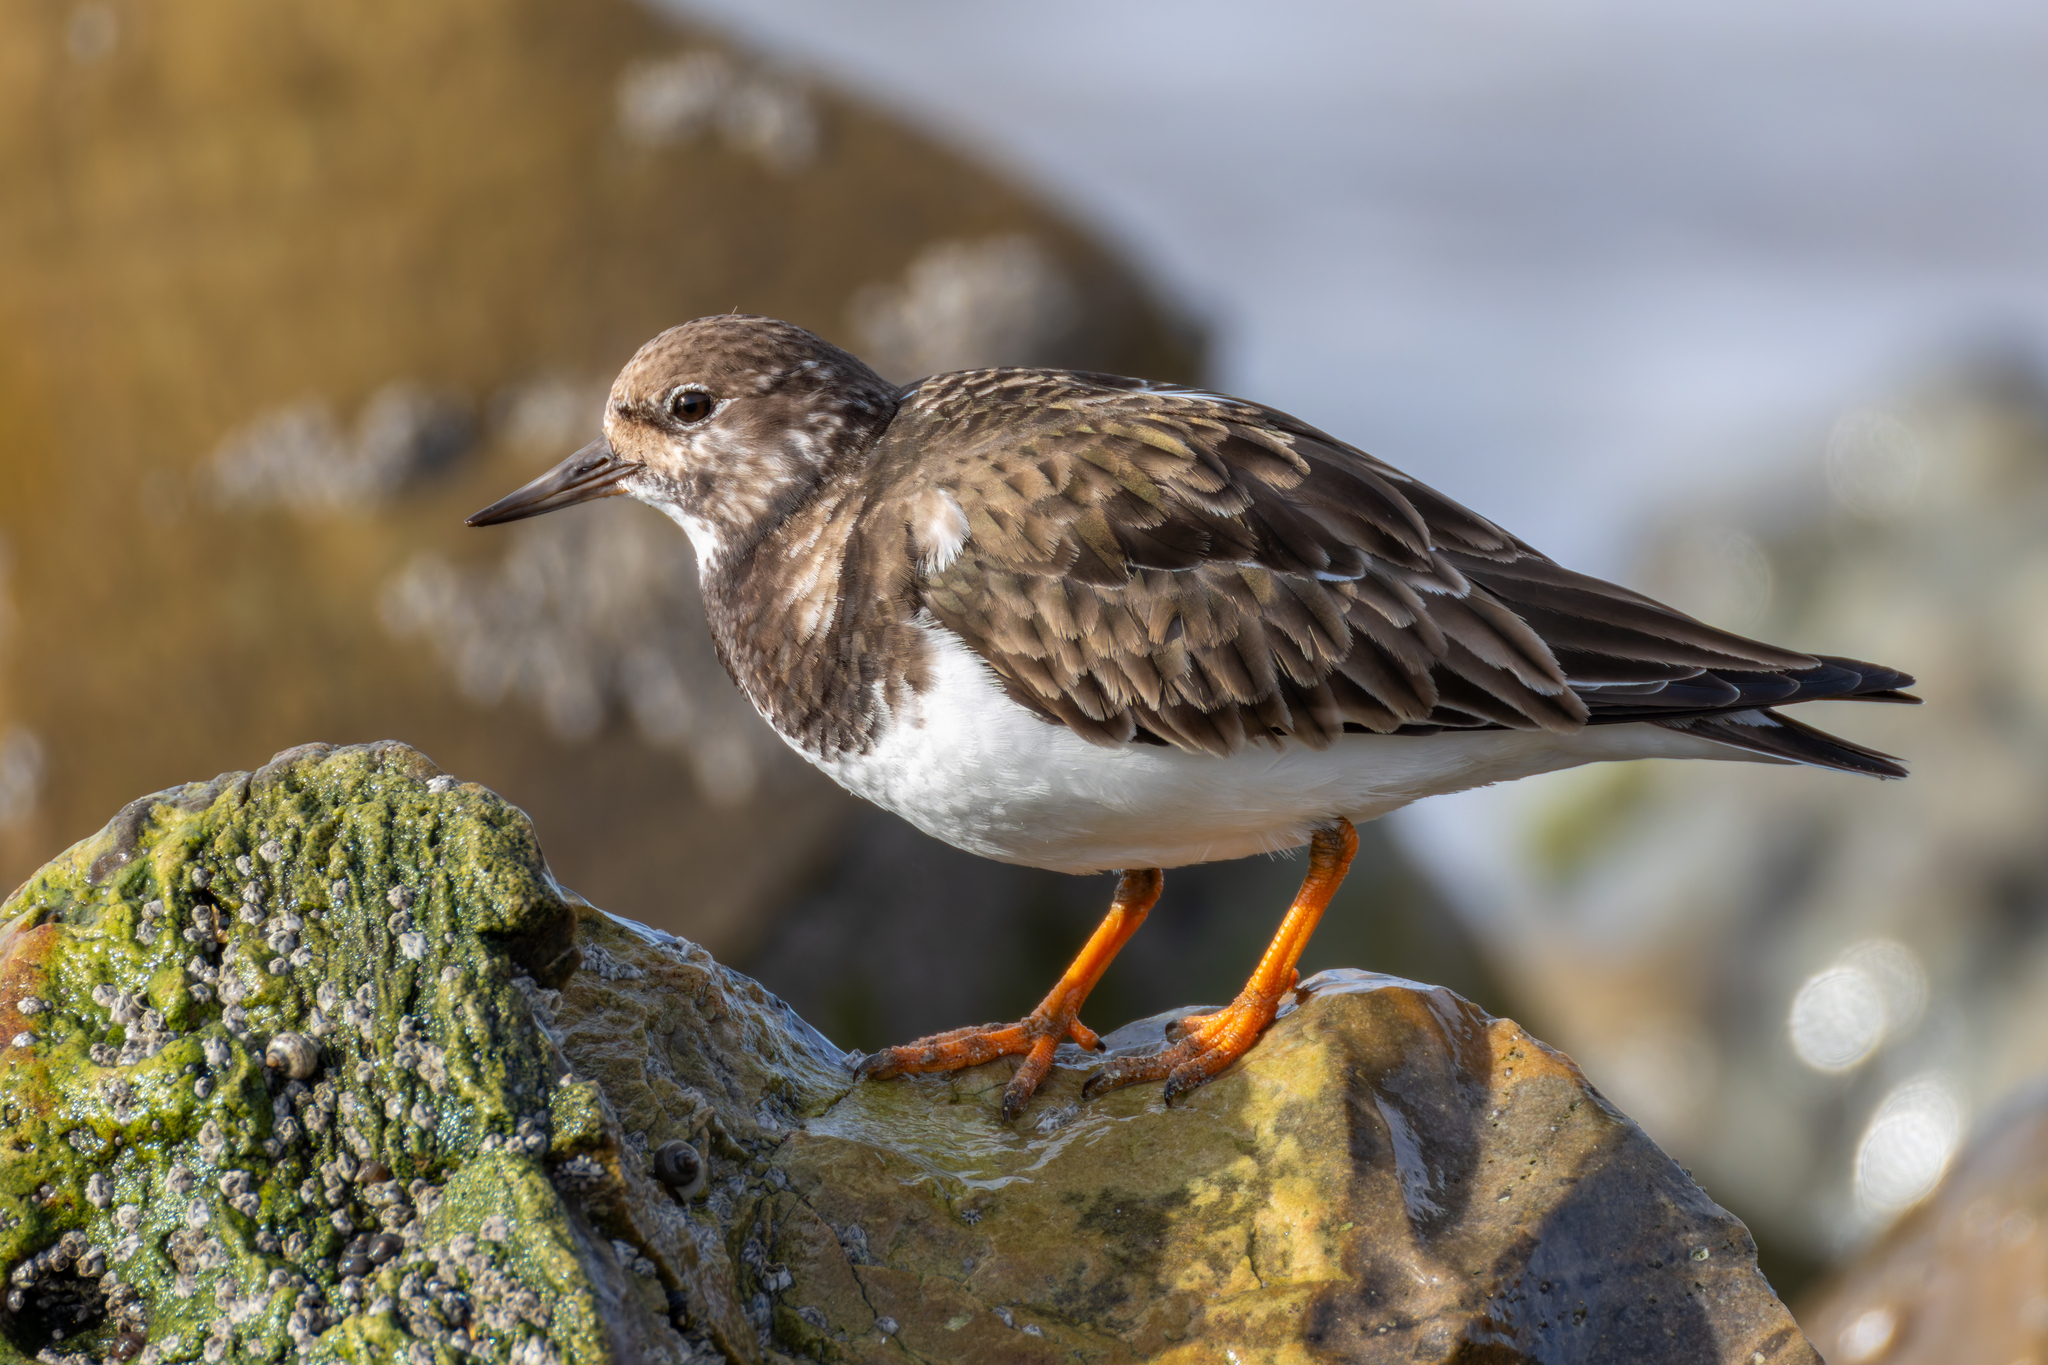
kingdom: Animalia
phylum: Chordata
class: Aves
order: Charadriiformes
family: Scolopacidae
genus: Arenaria
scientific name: Arenaria interpres
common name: Ruddy turnstone
